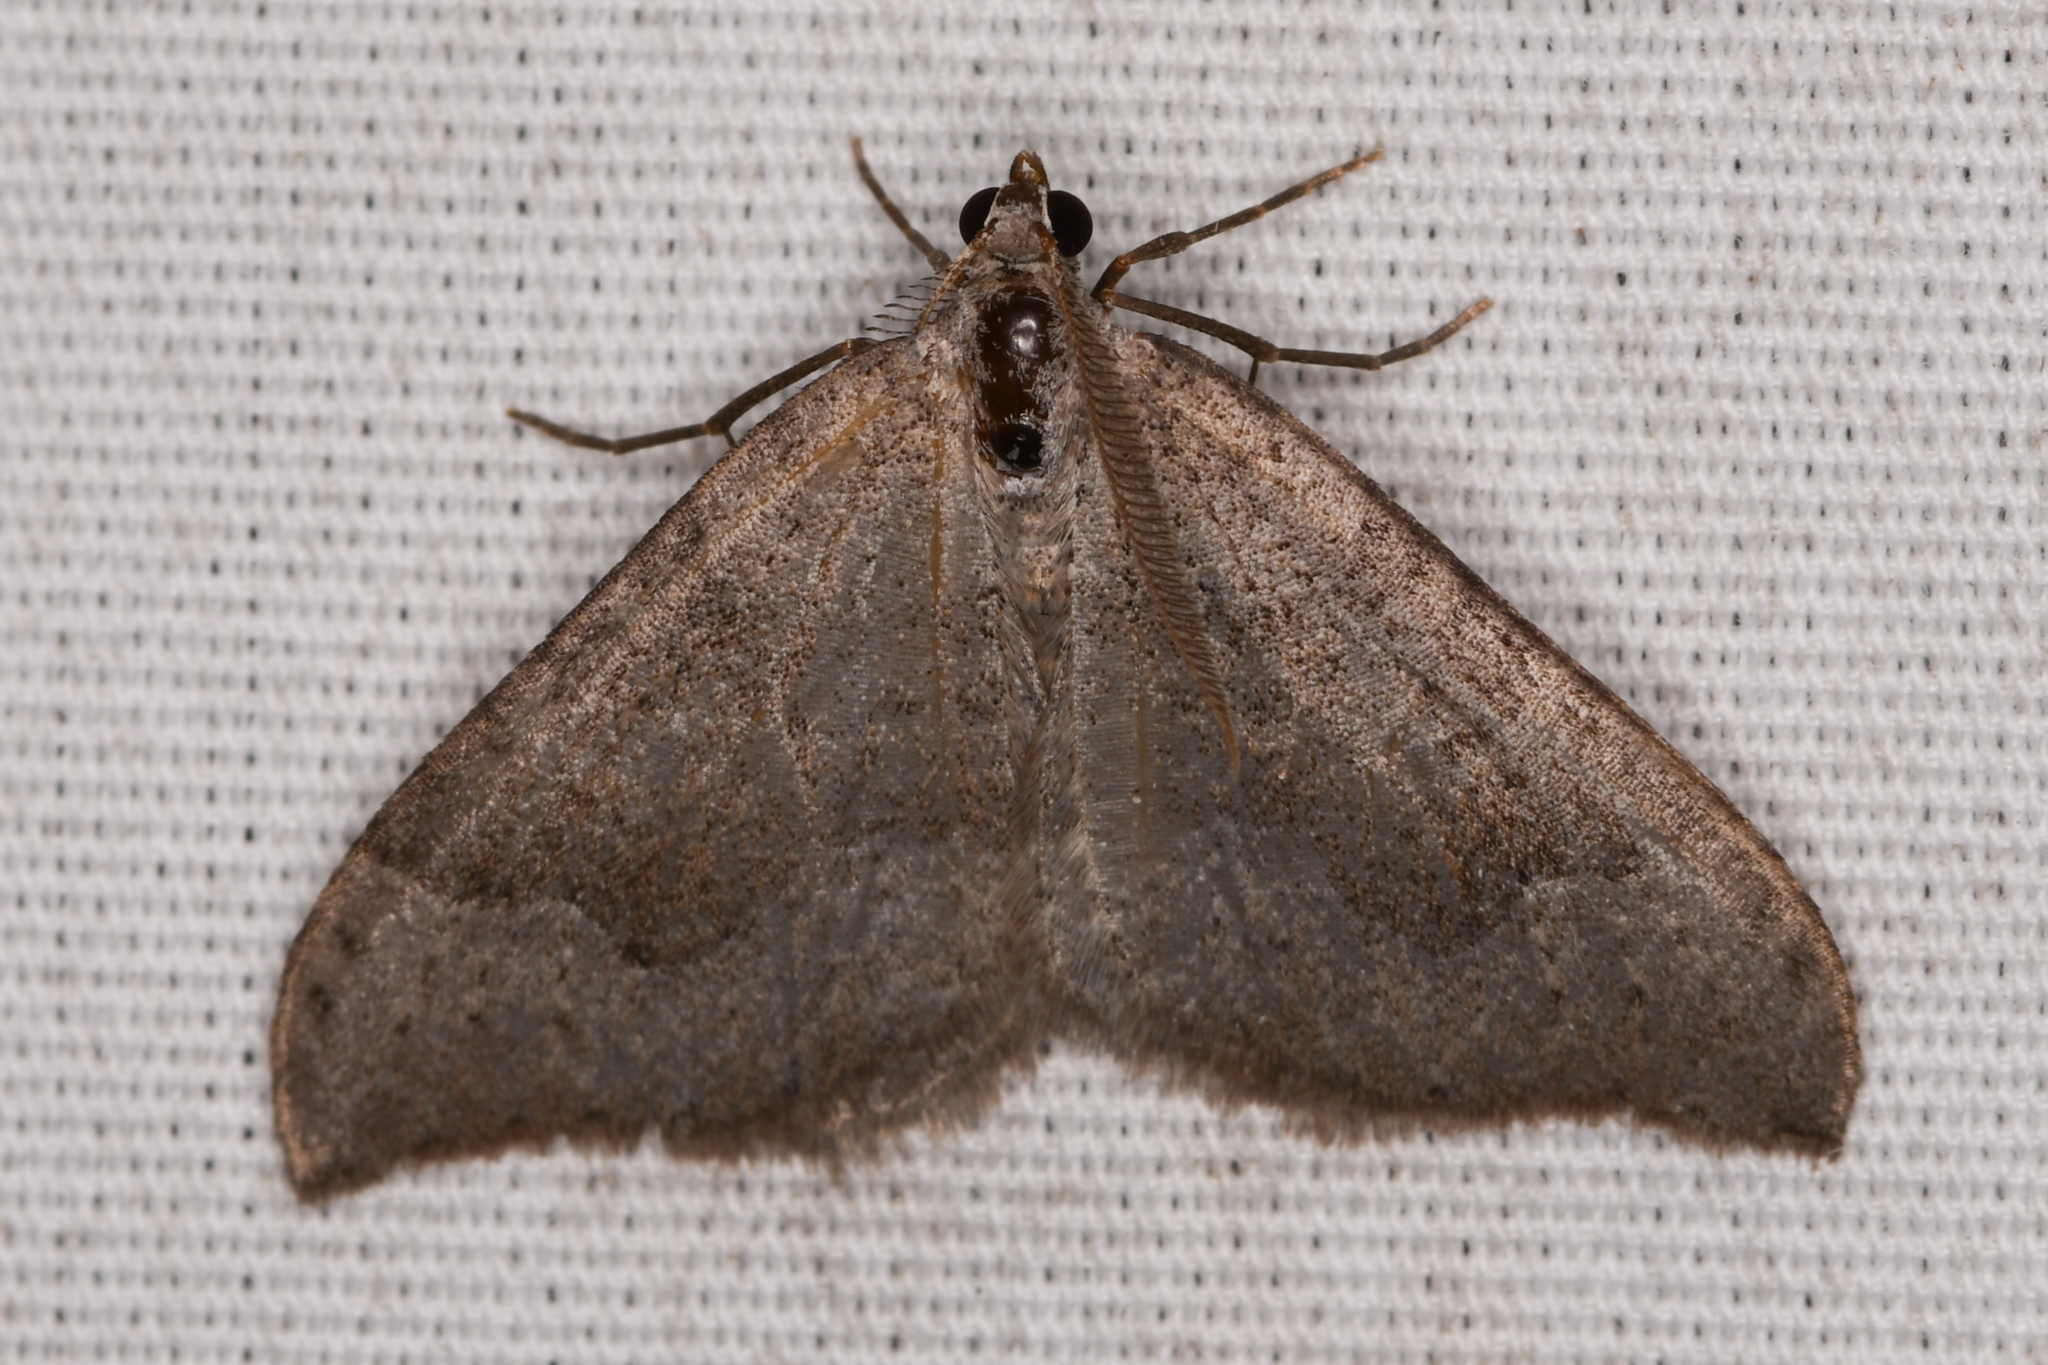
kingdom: Animalia
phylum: Arthropoda
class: Insecta
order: Lepidoptera
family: Geometridae
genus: Zenophleps
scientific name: Zenophleps lignicolorata
